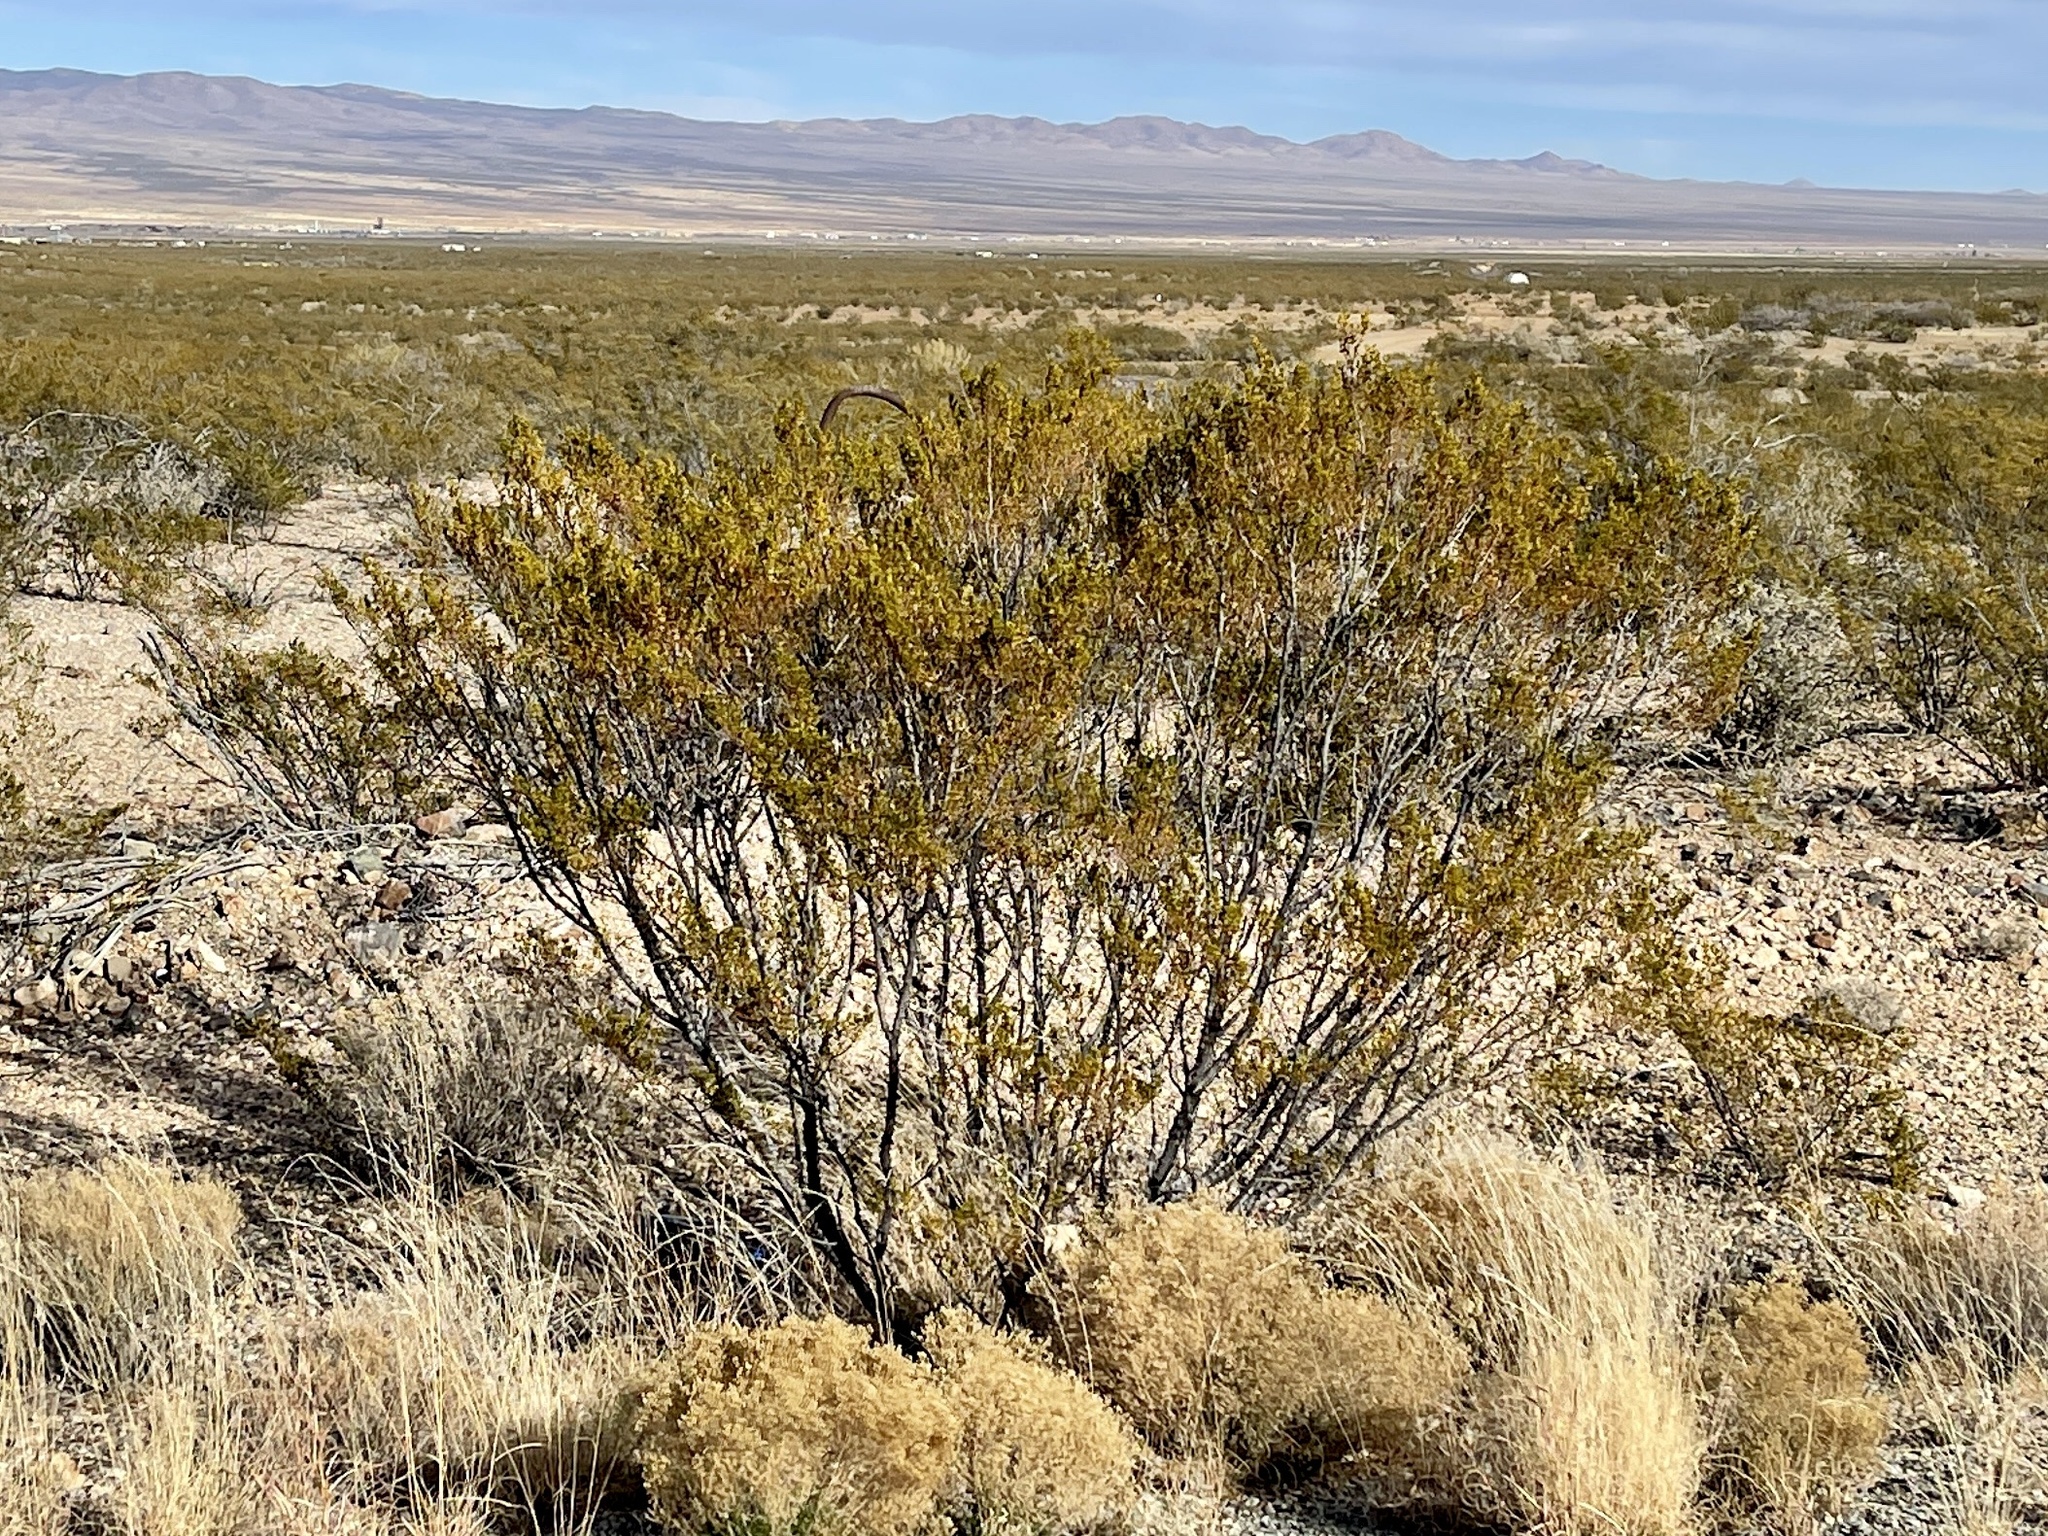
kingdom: Plantae
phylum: Tracheophyta
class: Magnoliopsida
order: Zygophyllales
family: Zygophyllaceae
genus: Larrea
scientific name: Larrea tridentata
